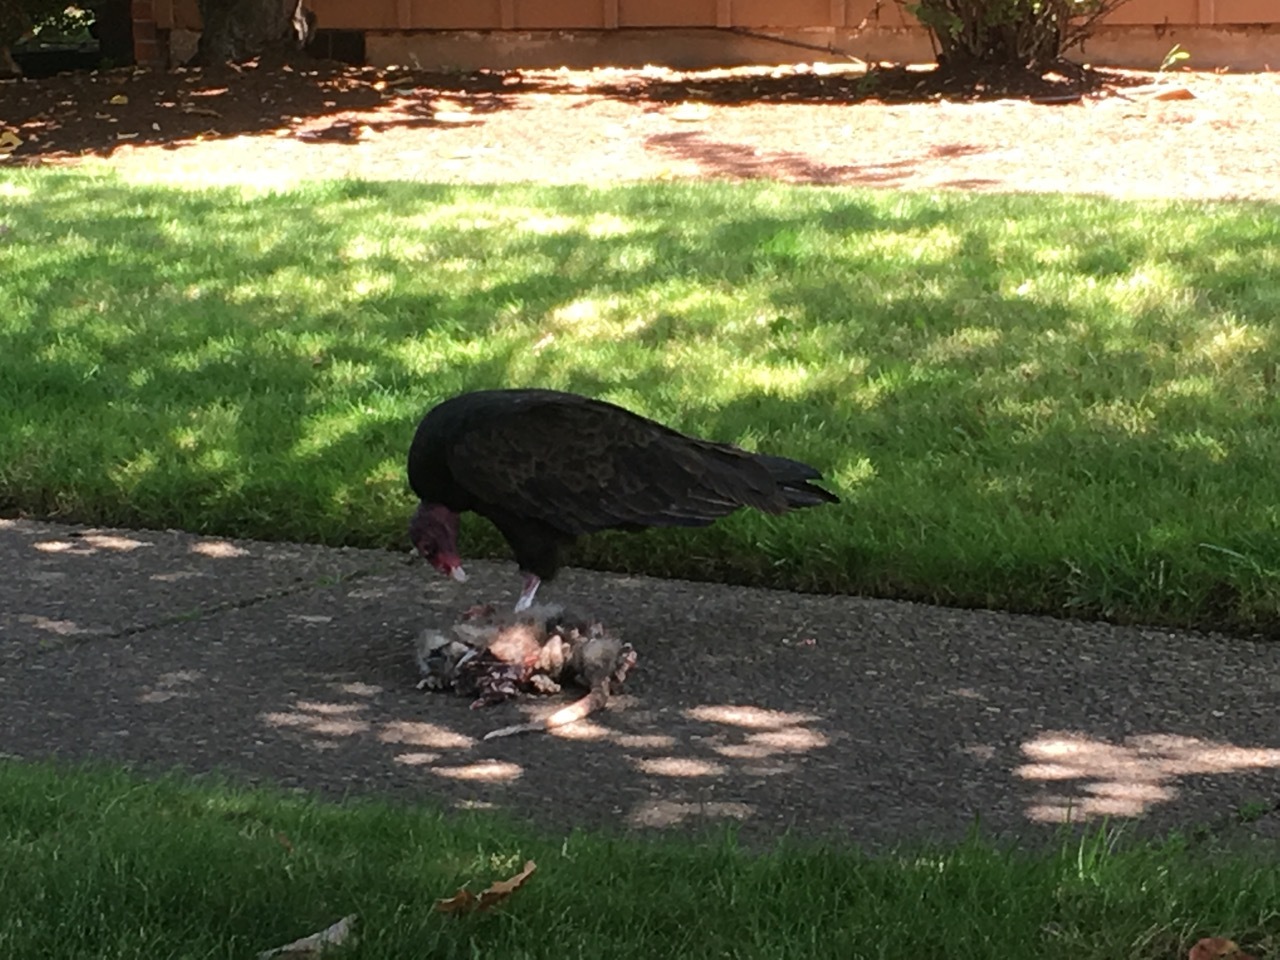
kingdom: Animalia
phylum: Chordata
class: Mammalia
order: Didelphimorphia
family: Didelphidae
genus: Didelphis
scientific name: Didelphis virginiana
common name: Virginia opossum
